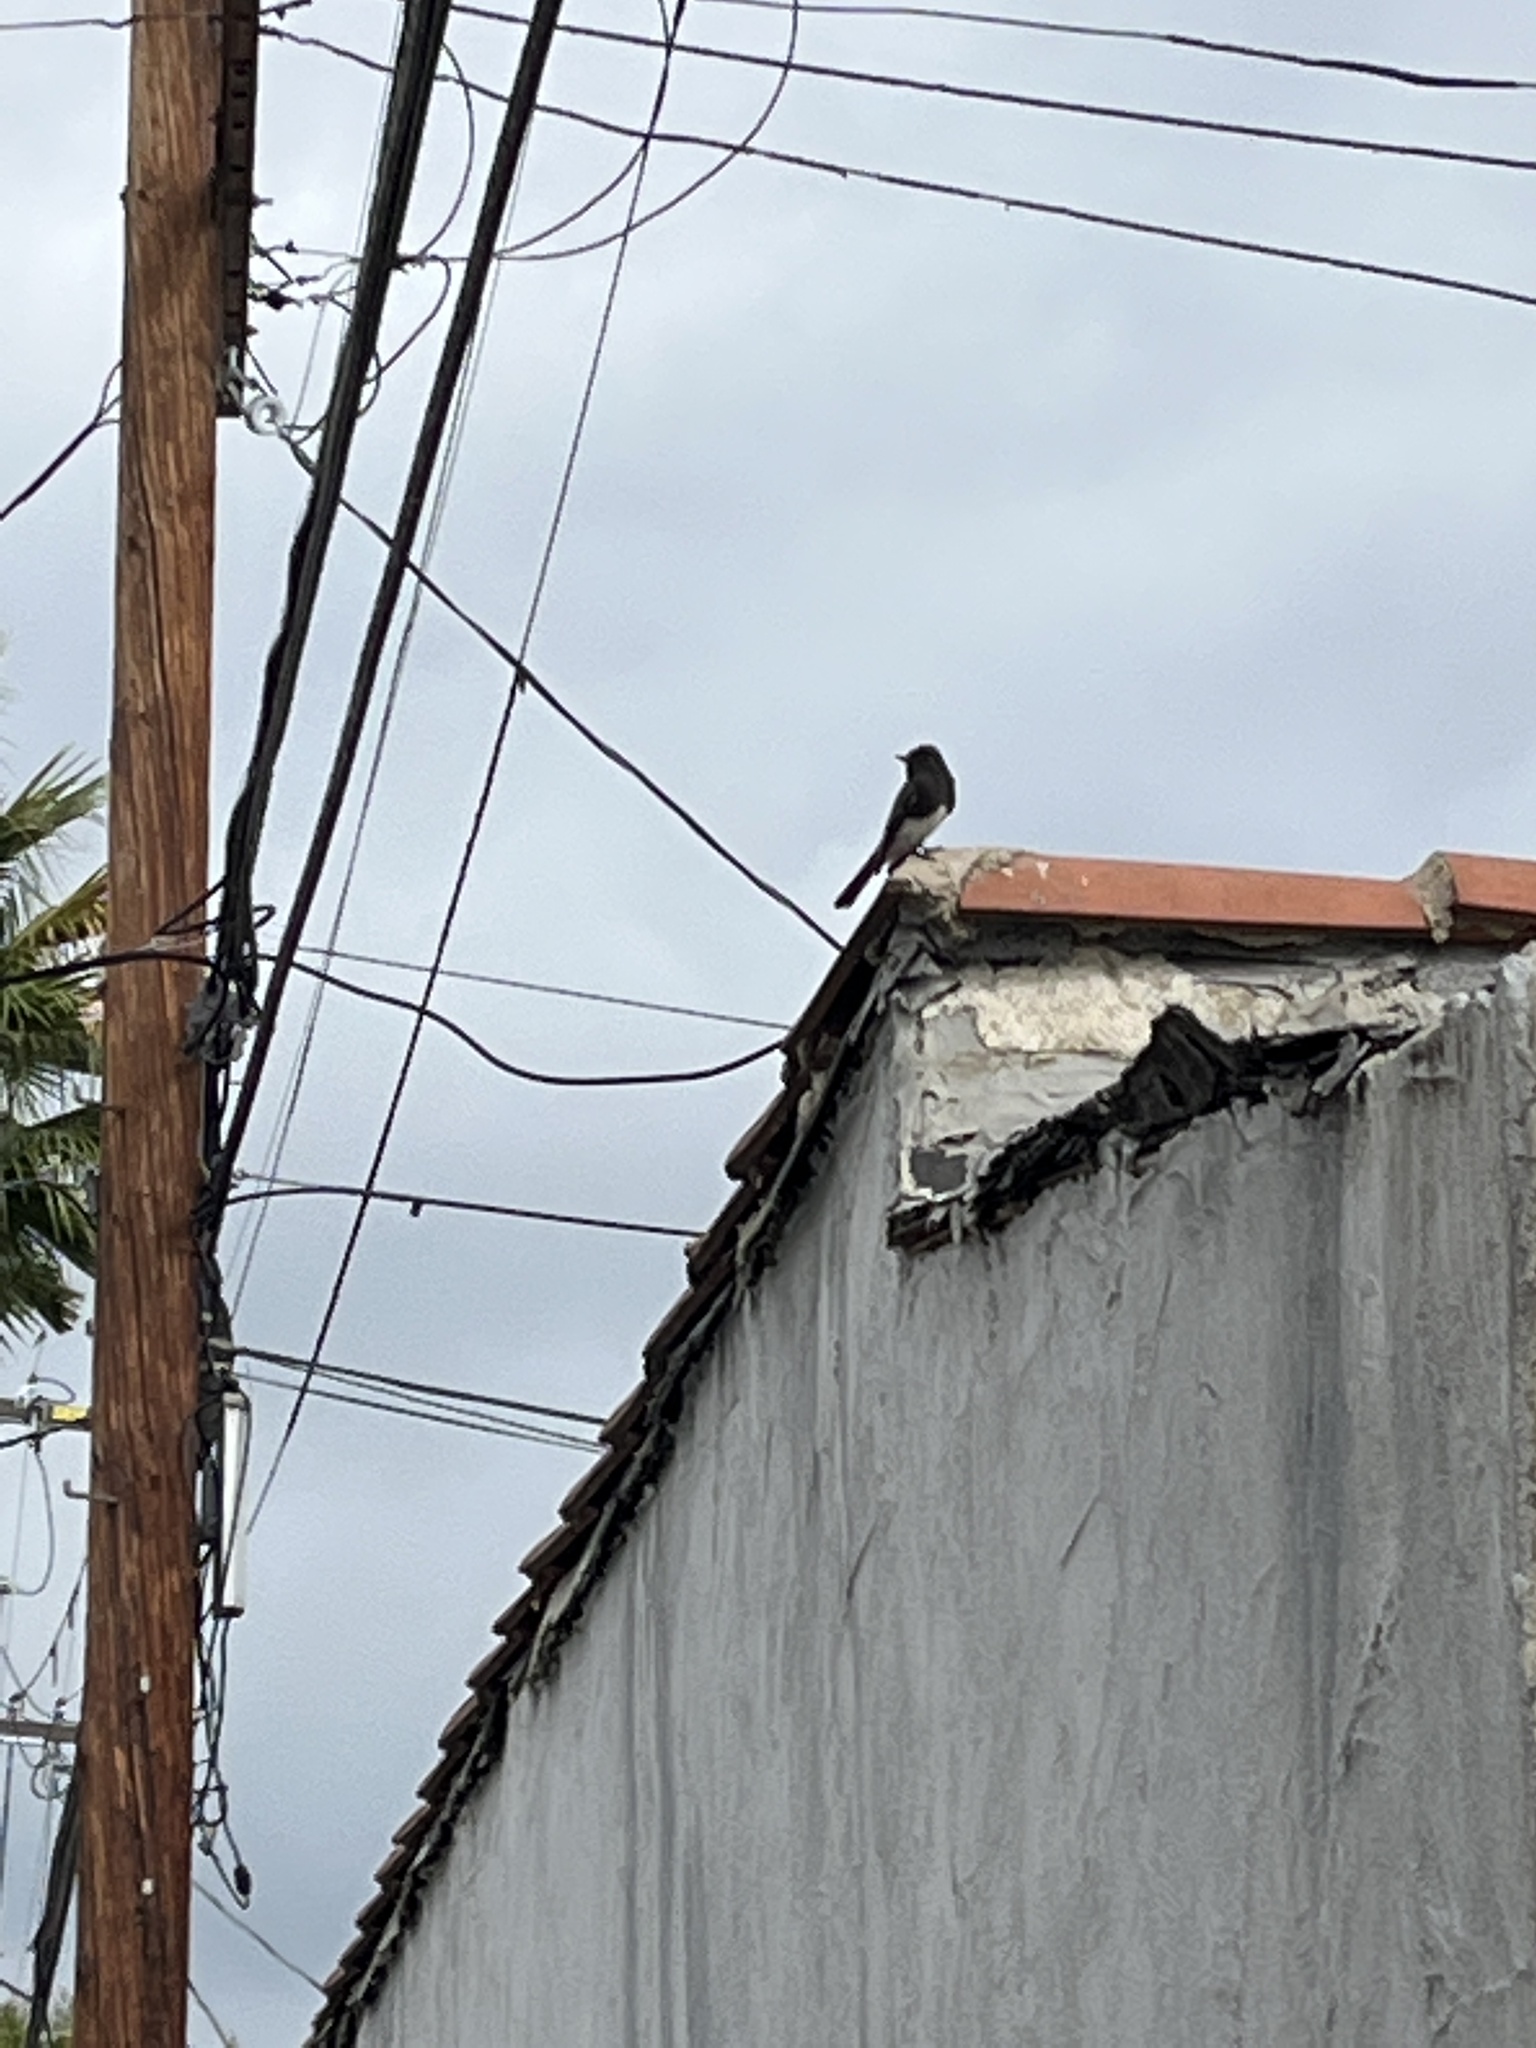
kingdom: Animalia
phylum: Chordata
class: Aves
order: Passeriformes
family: Tyrannidae
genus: Sayornis
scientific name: Sayornis nigricans
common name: Black phoebe
